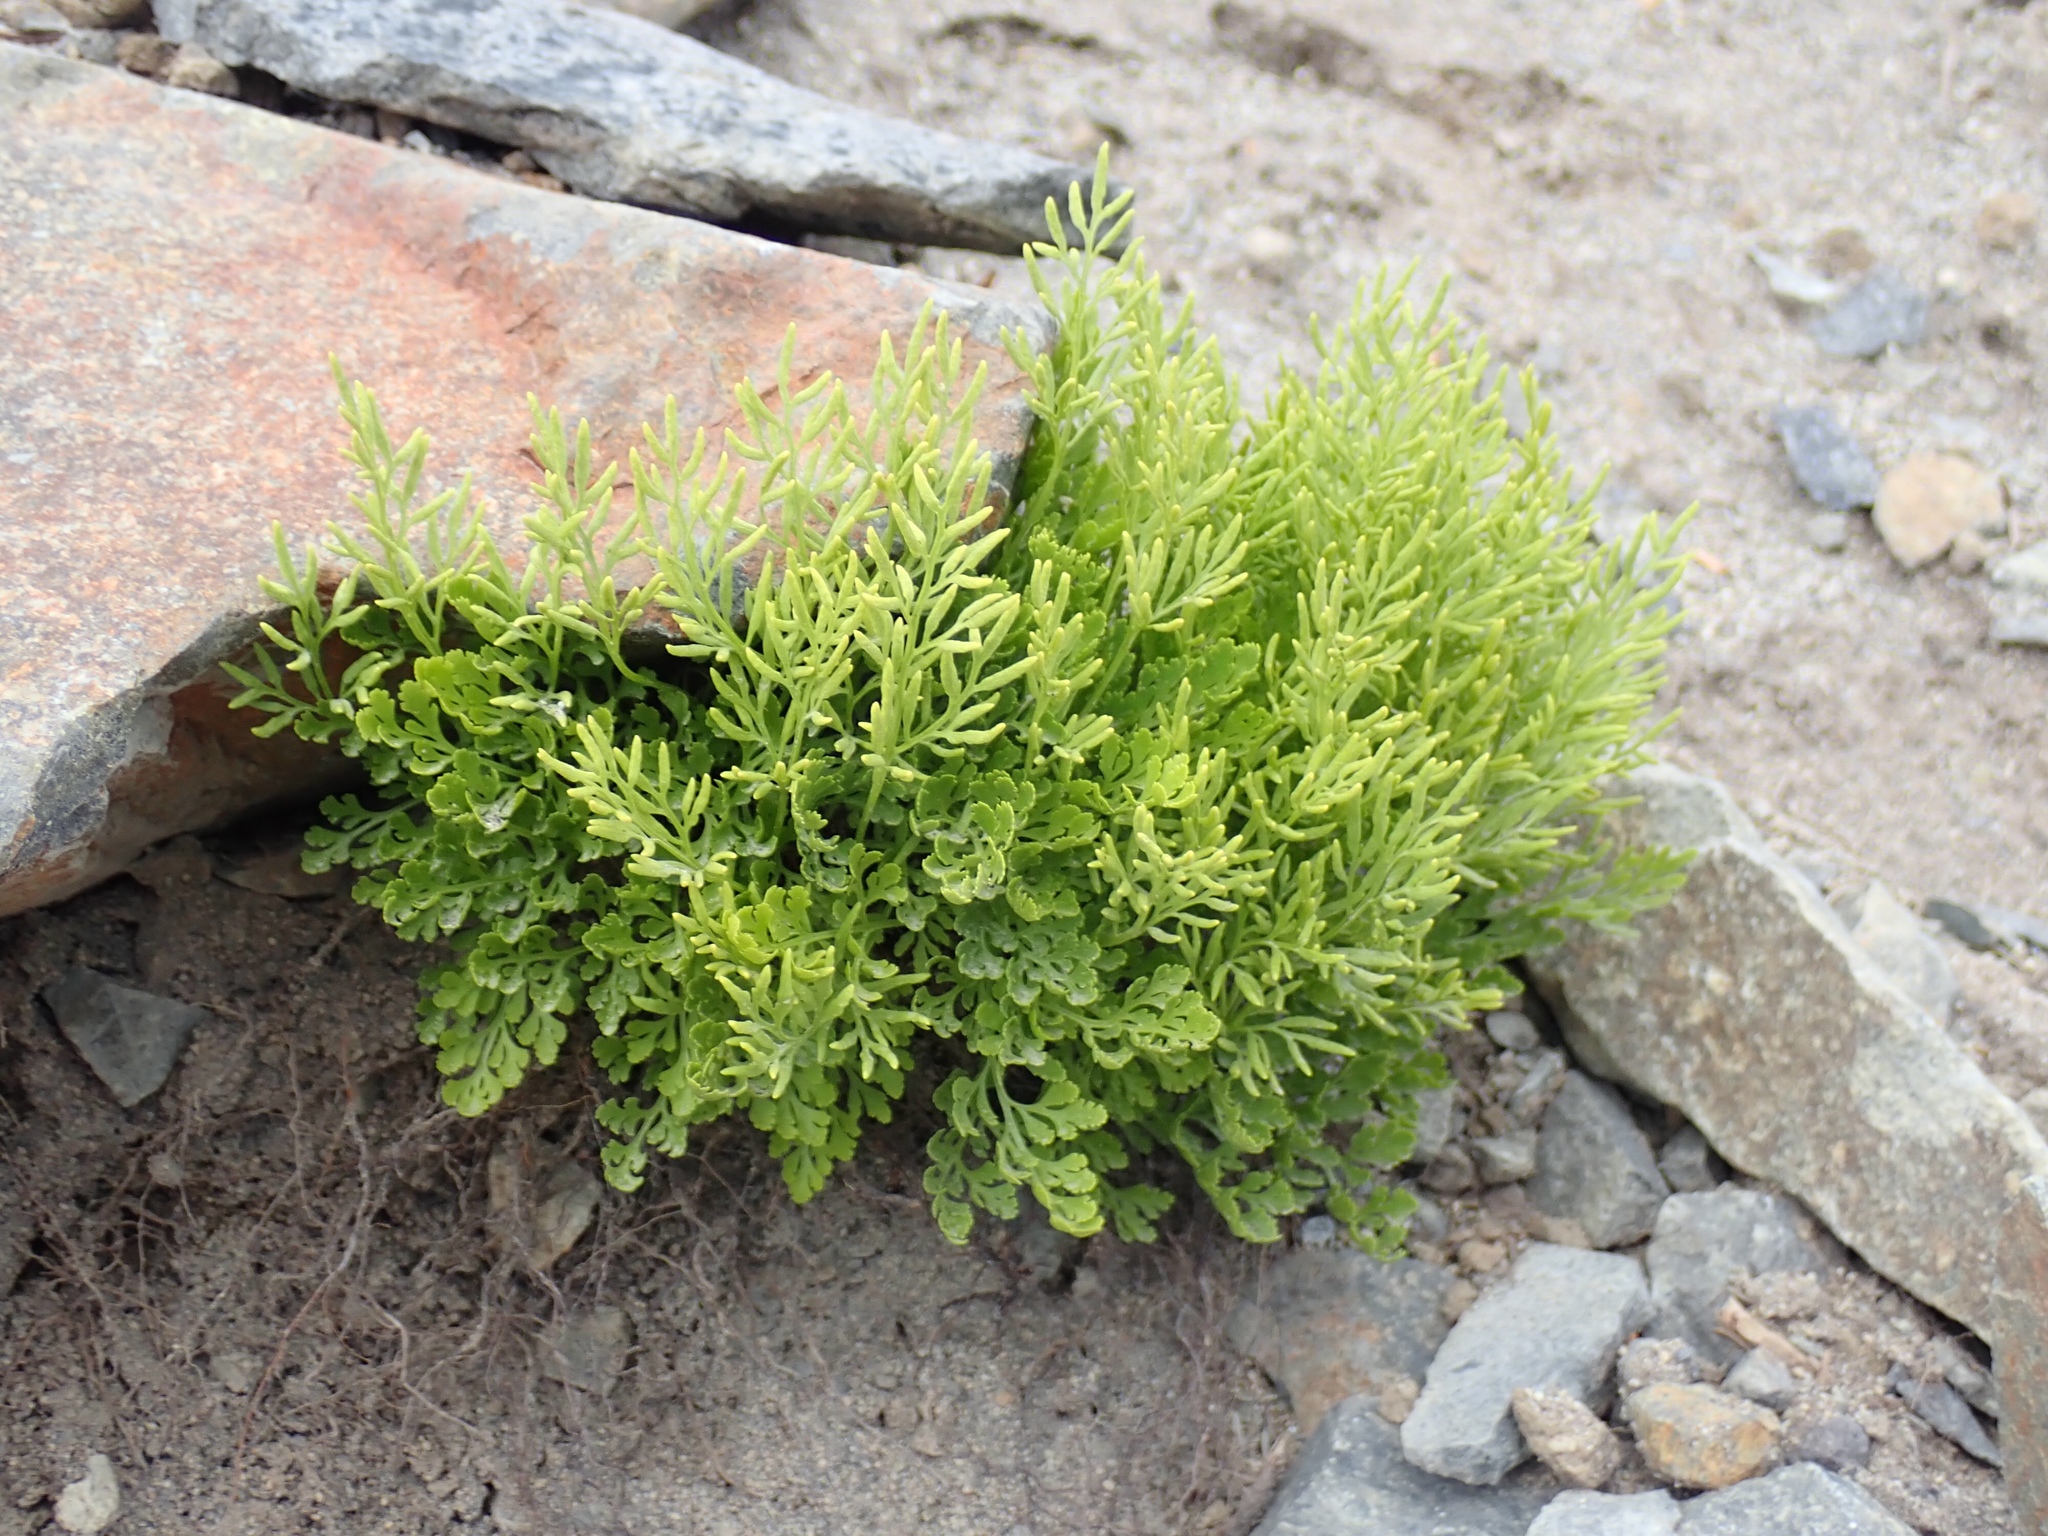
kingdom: Plantae
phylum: Tracheophyta
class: Polypodiopsida
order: Polypodiales
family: Pteridaceae
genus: Cryptogramma
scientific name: Cryptogramma cascadensis
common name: Cascade parsley fern
